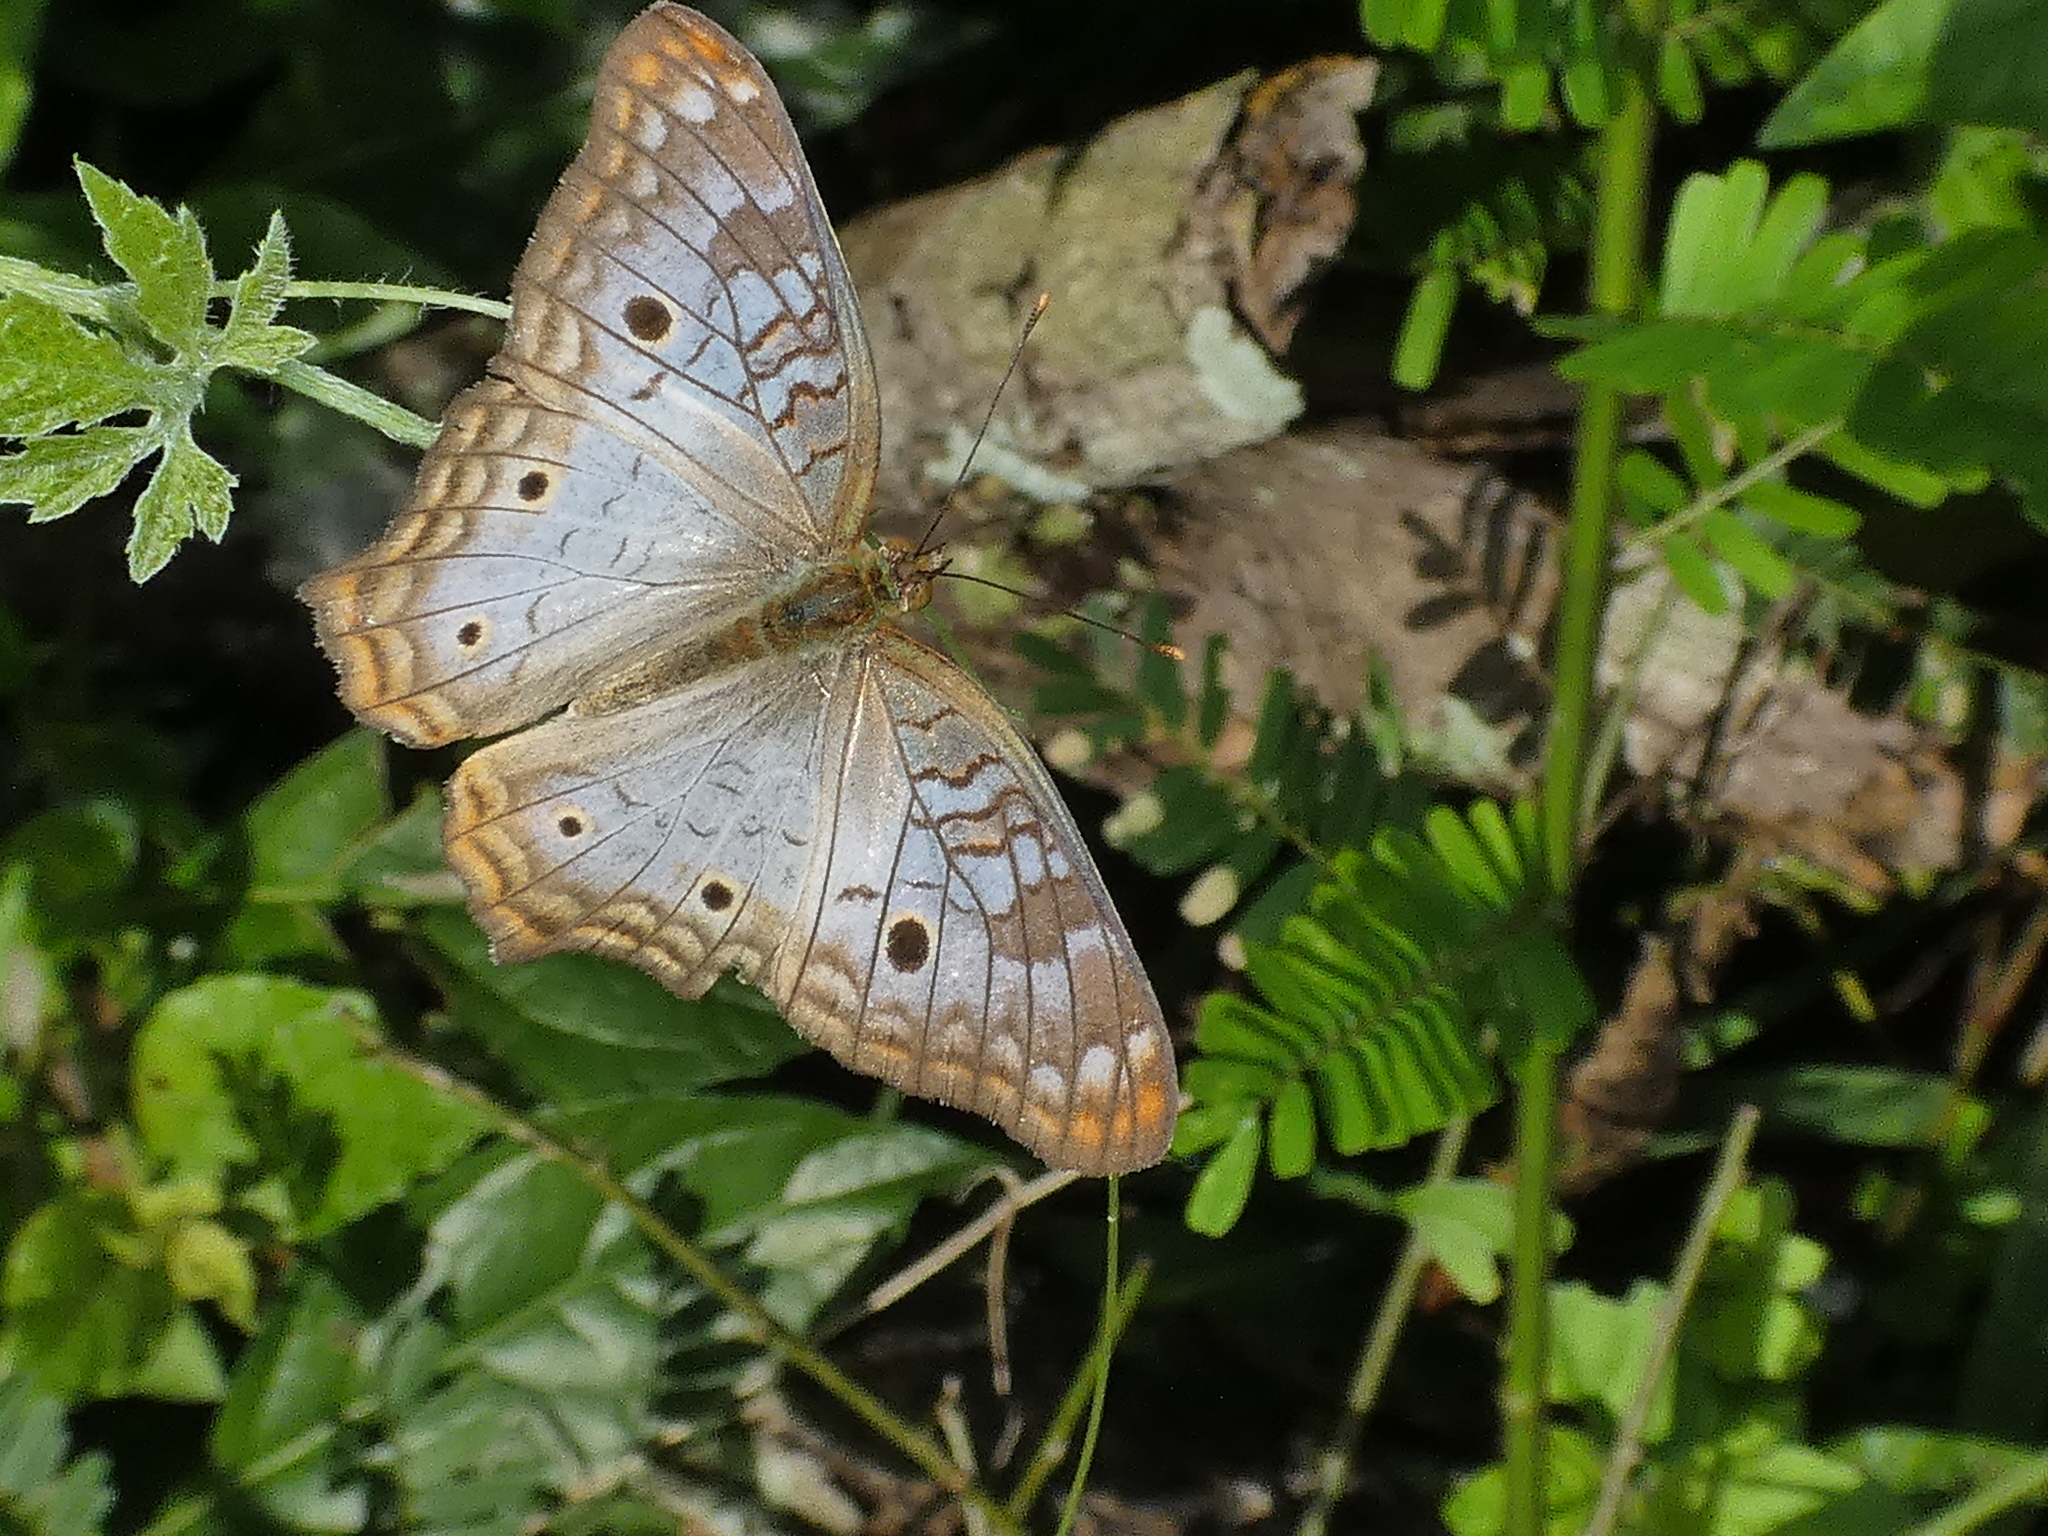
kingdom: Animalia
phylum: Arthropoda
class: Insecta
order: Lepidoptera
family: Nymphalidae
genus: Anartia
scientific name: Anartia jatrophae
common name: White peacock
